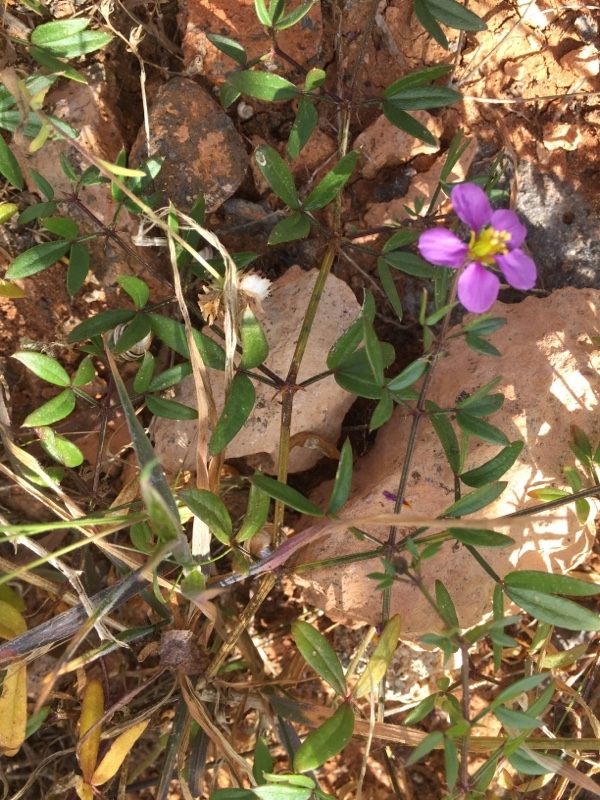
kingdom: Plantae
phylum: Tracheophyta
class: Magnoliopsida
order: Zygophyllales
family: Zygophyllaceae
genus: Fagonia
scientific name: Fagonia cretica
